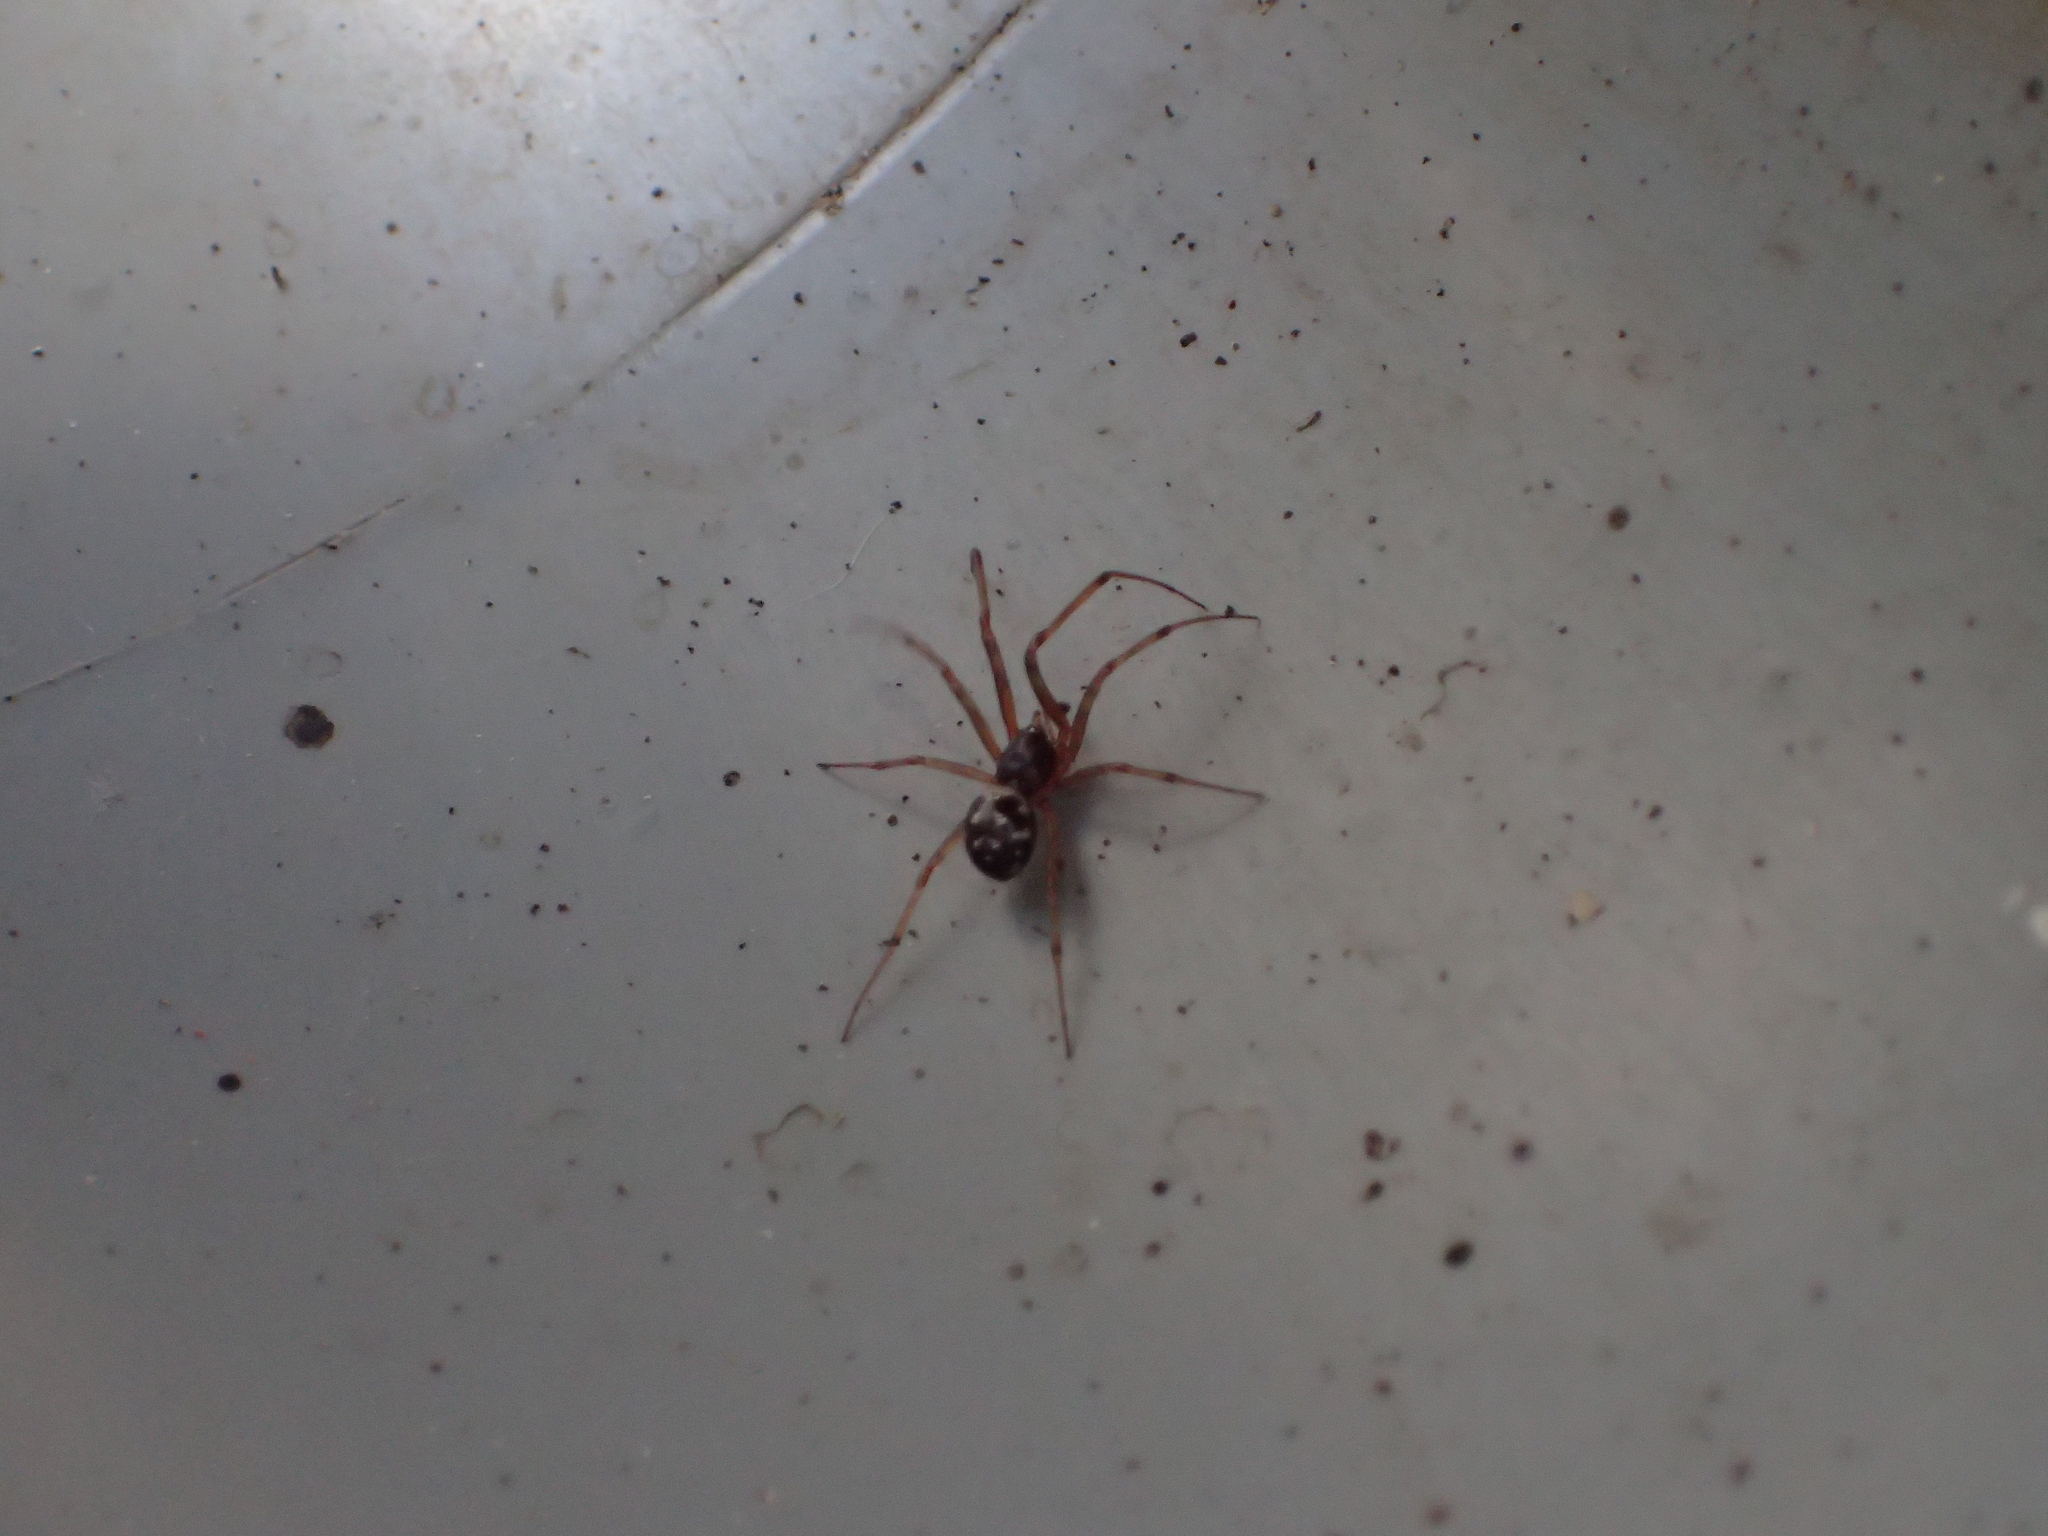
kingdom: Animalia
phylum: Arthropoda
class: Arachnida
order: Araneae
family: Theridiidae
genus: Steatoda
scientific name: Steatoda triangulosa
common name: Triangulate bud spider
